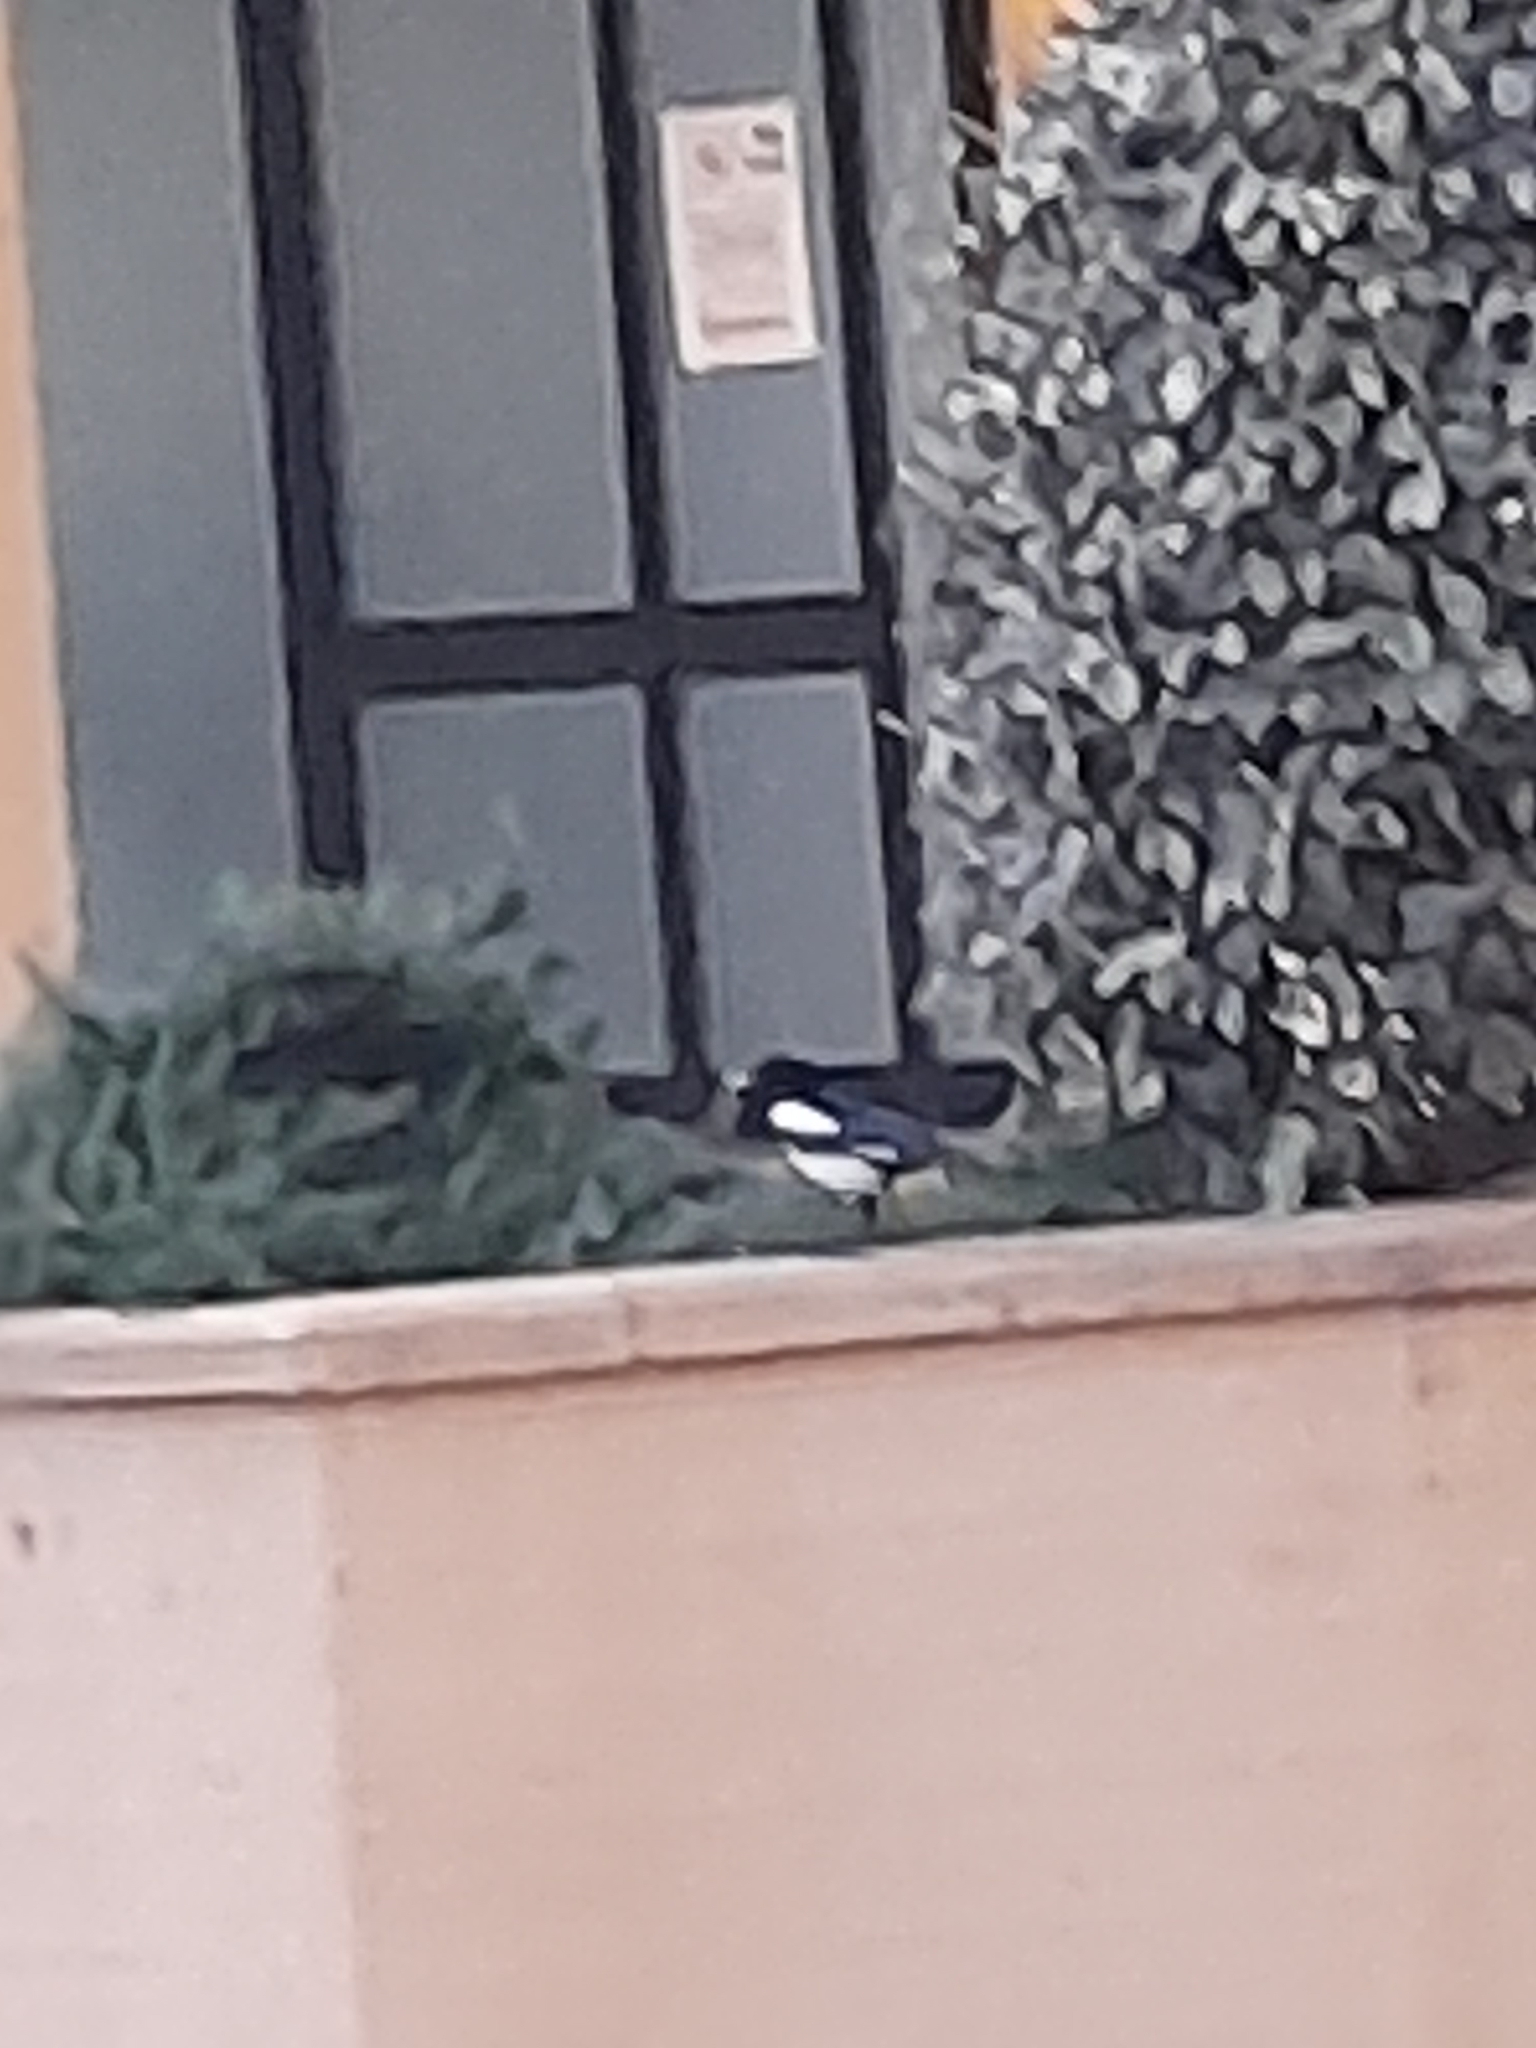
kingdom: Animalia
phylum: Chordata
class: Aves
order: Passeriformes
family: Corvidae
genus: Pica
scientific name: Pica pica
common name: Eurasian magpie
